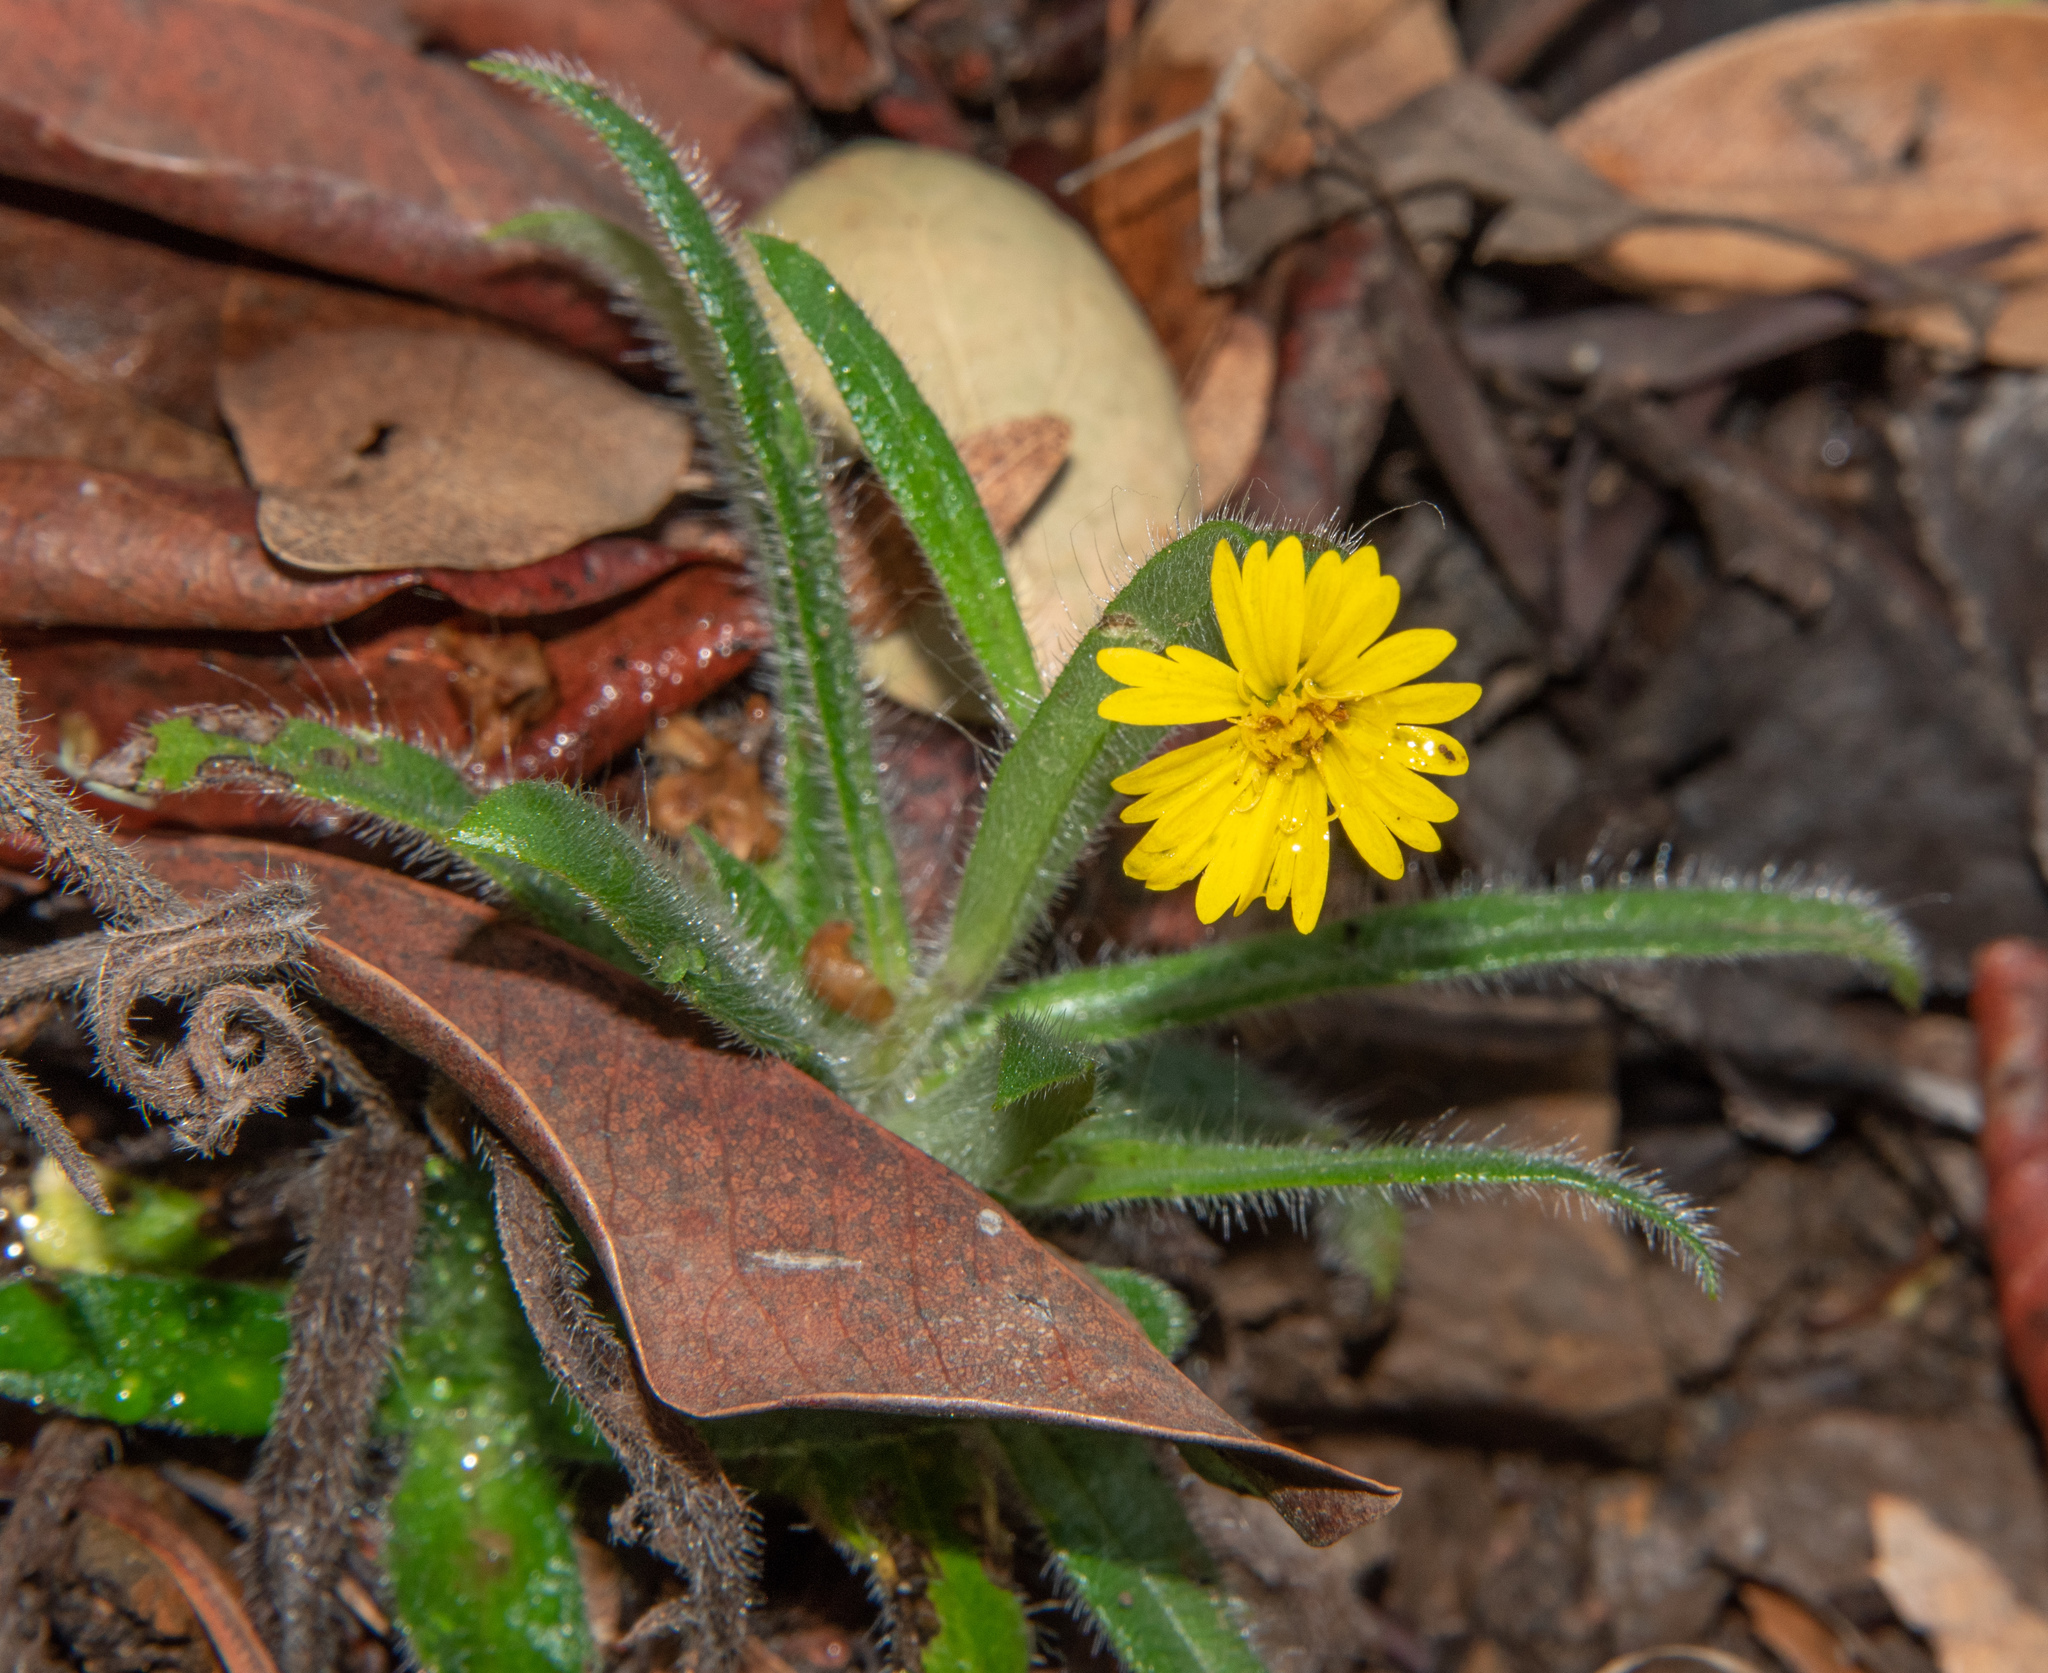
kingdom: Plantae
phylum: Tracheophyta
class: Magnoliopsida
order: Asterales
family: Asteraceae
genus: Anisocarpus
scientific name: Anisocarpus madioides
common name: Woodland madia
